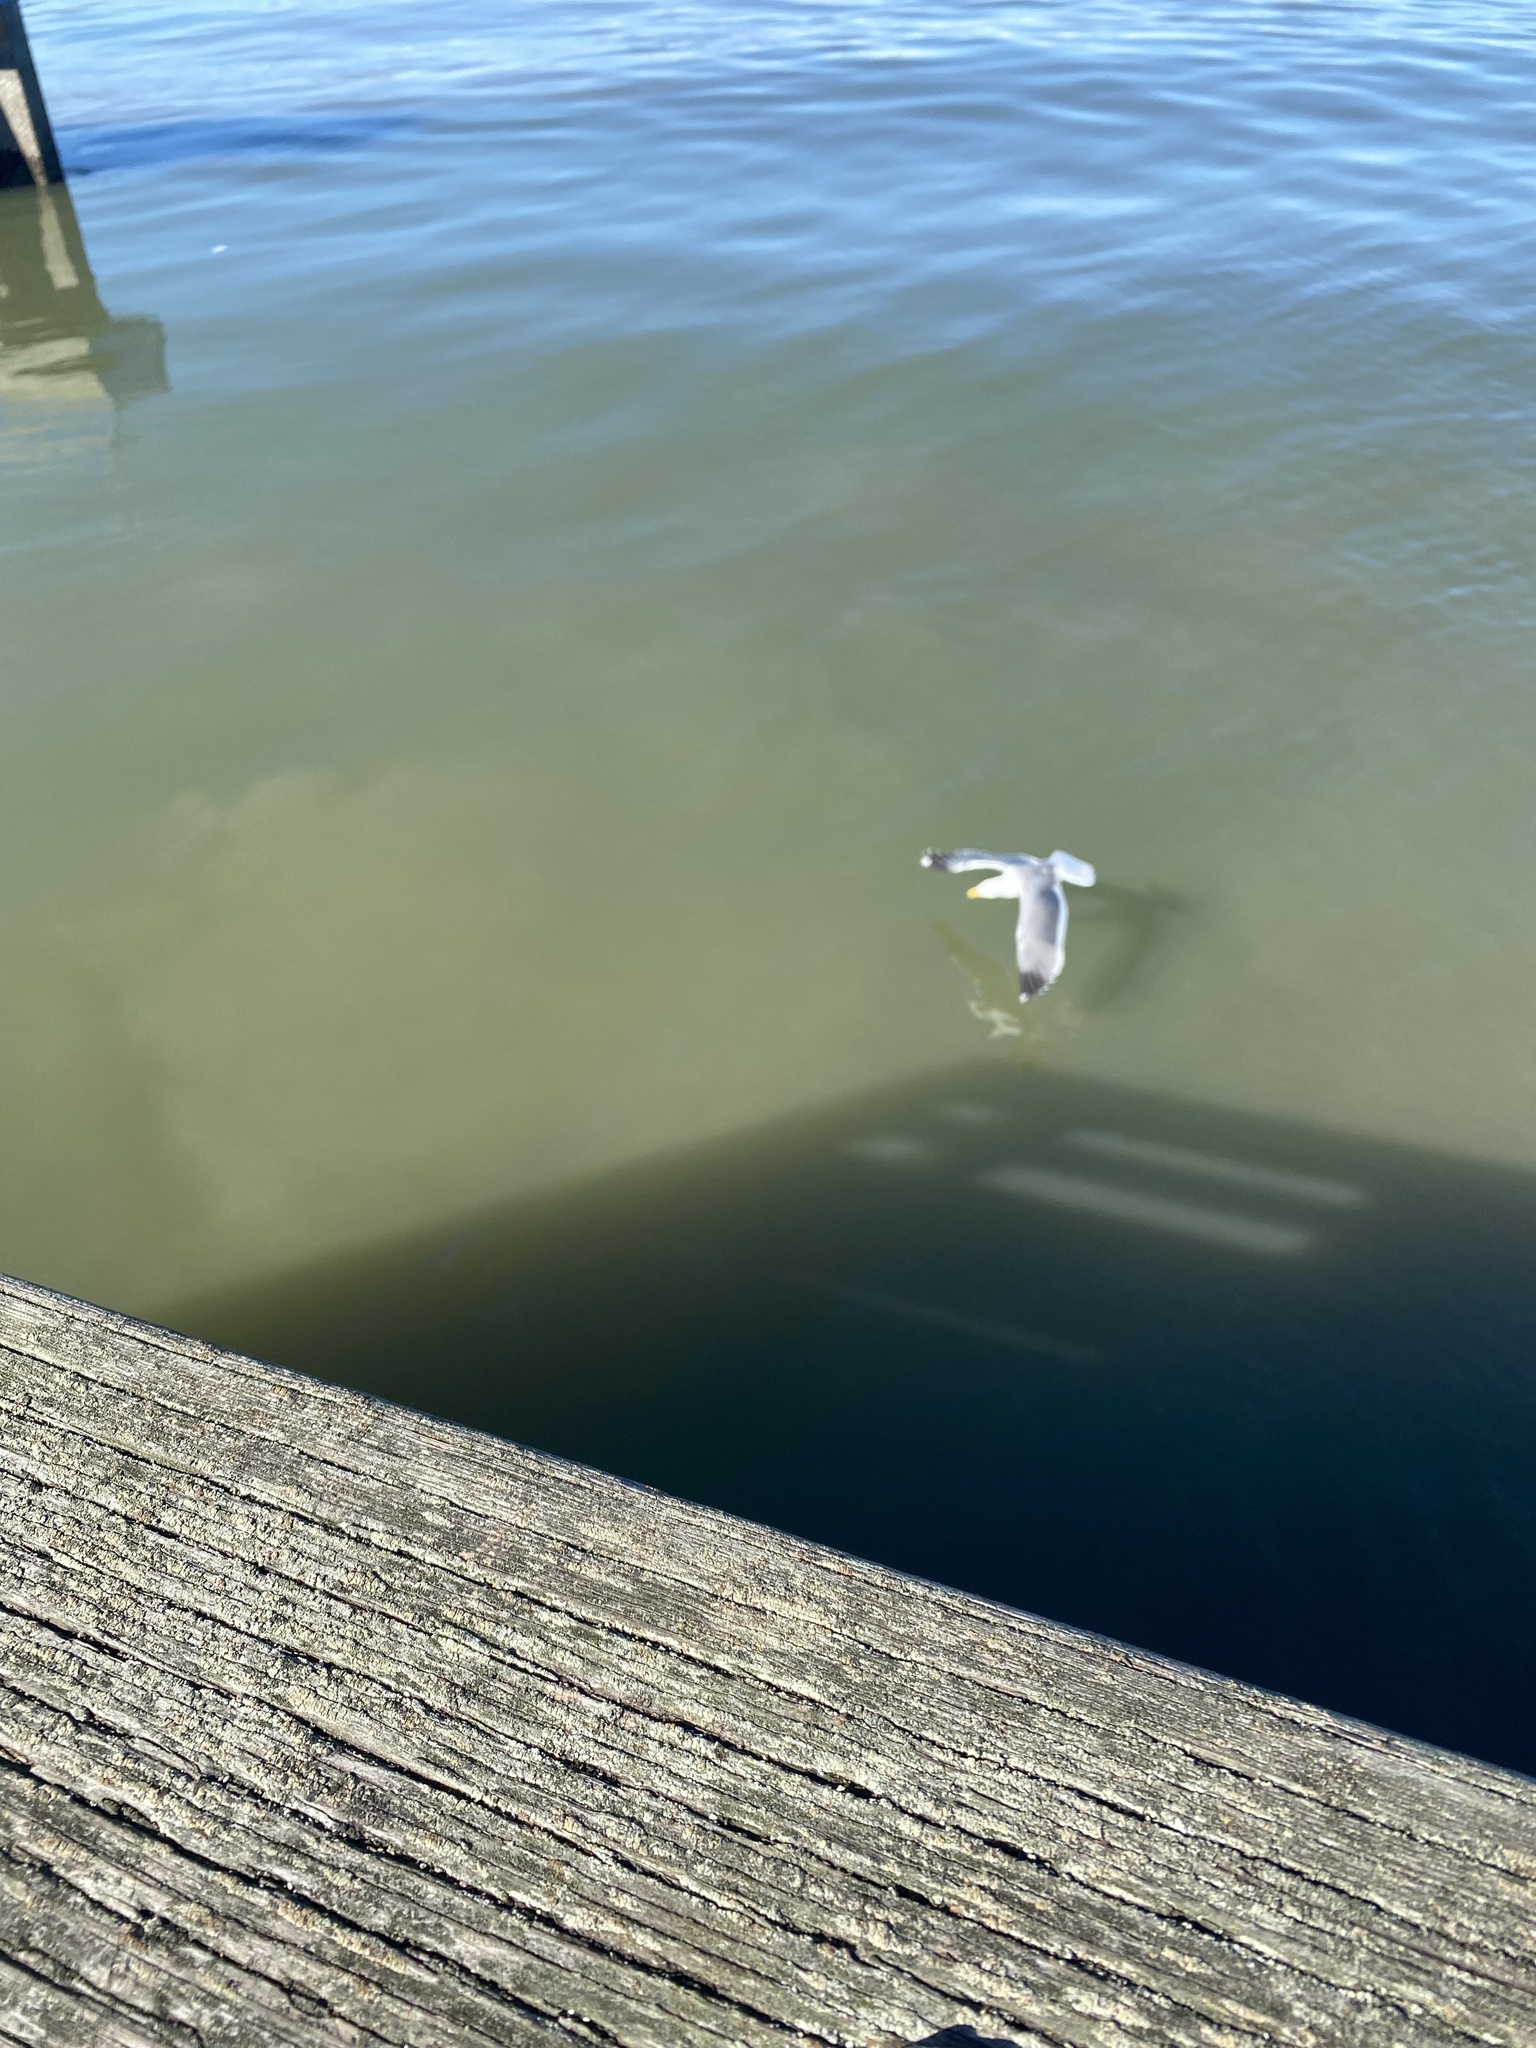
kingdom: Animalia
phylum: Chordata
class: Aves
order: Charadriiformes
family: Laridae
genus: Larus
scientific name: Larus
